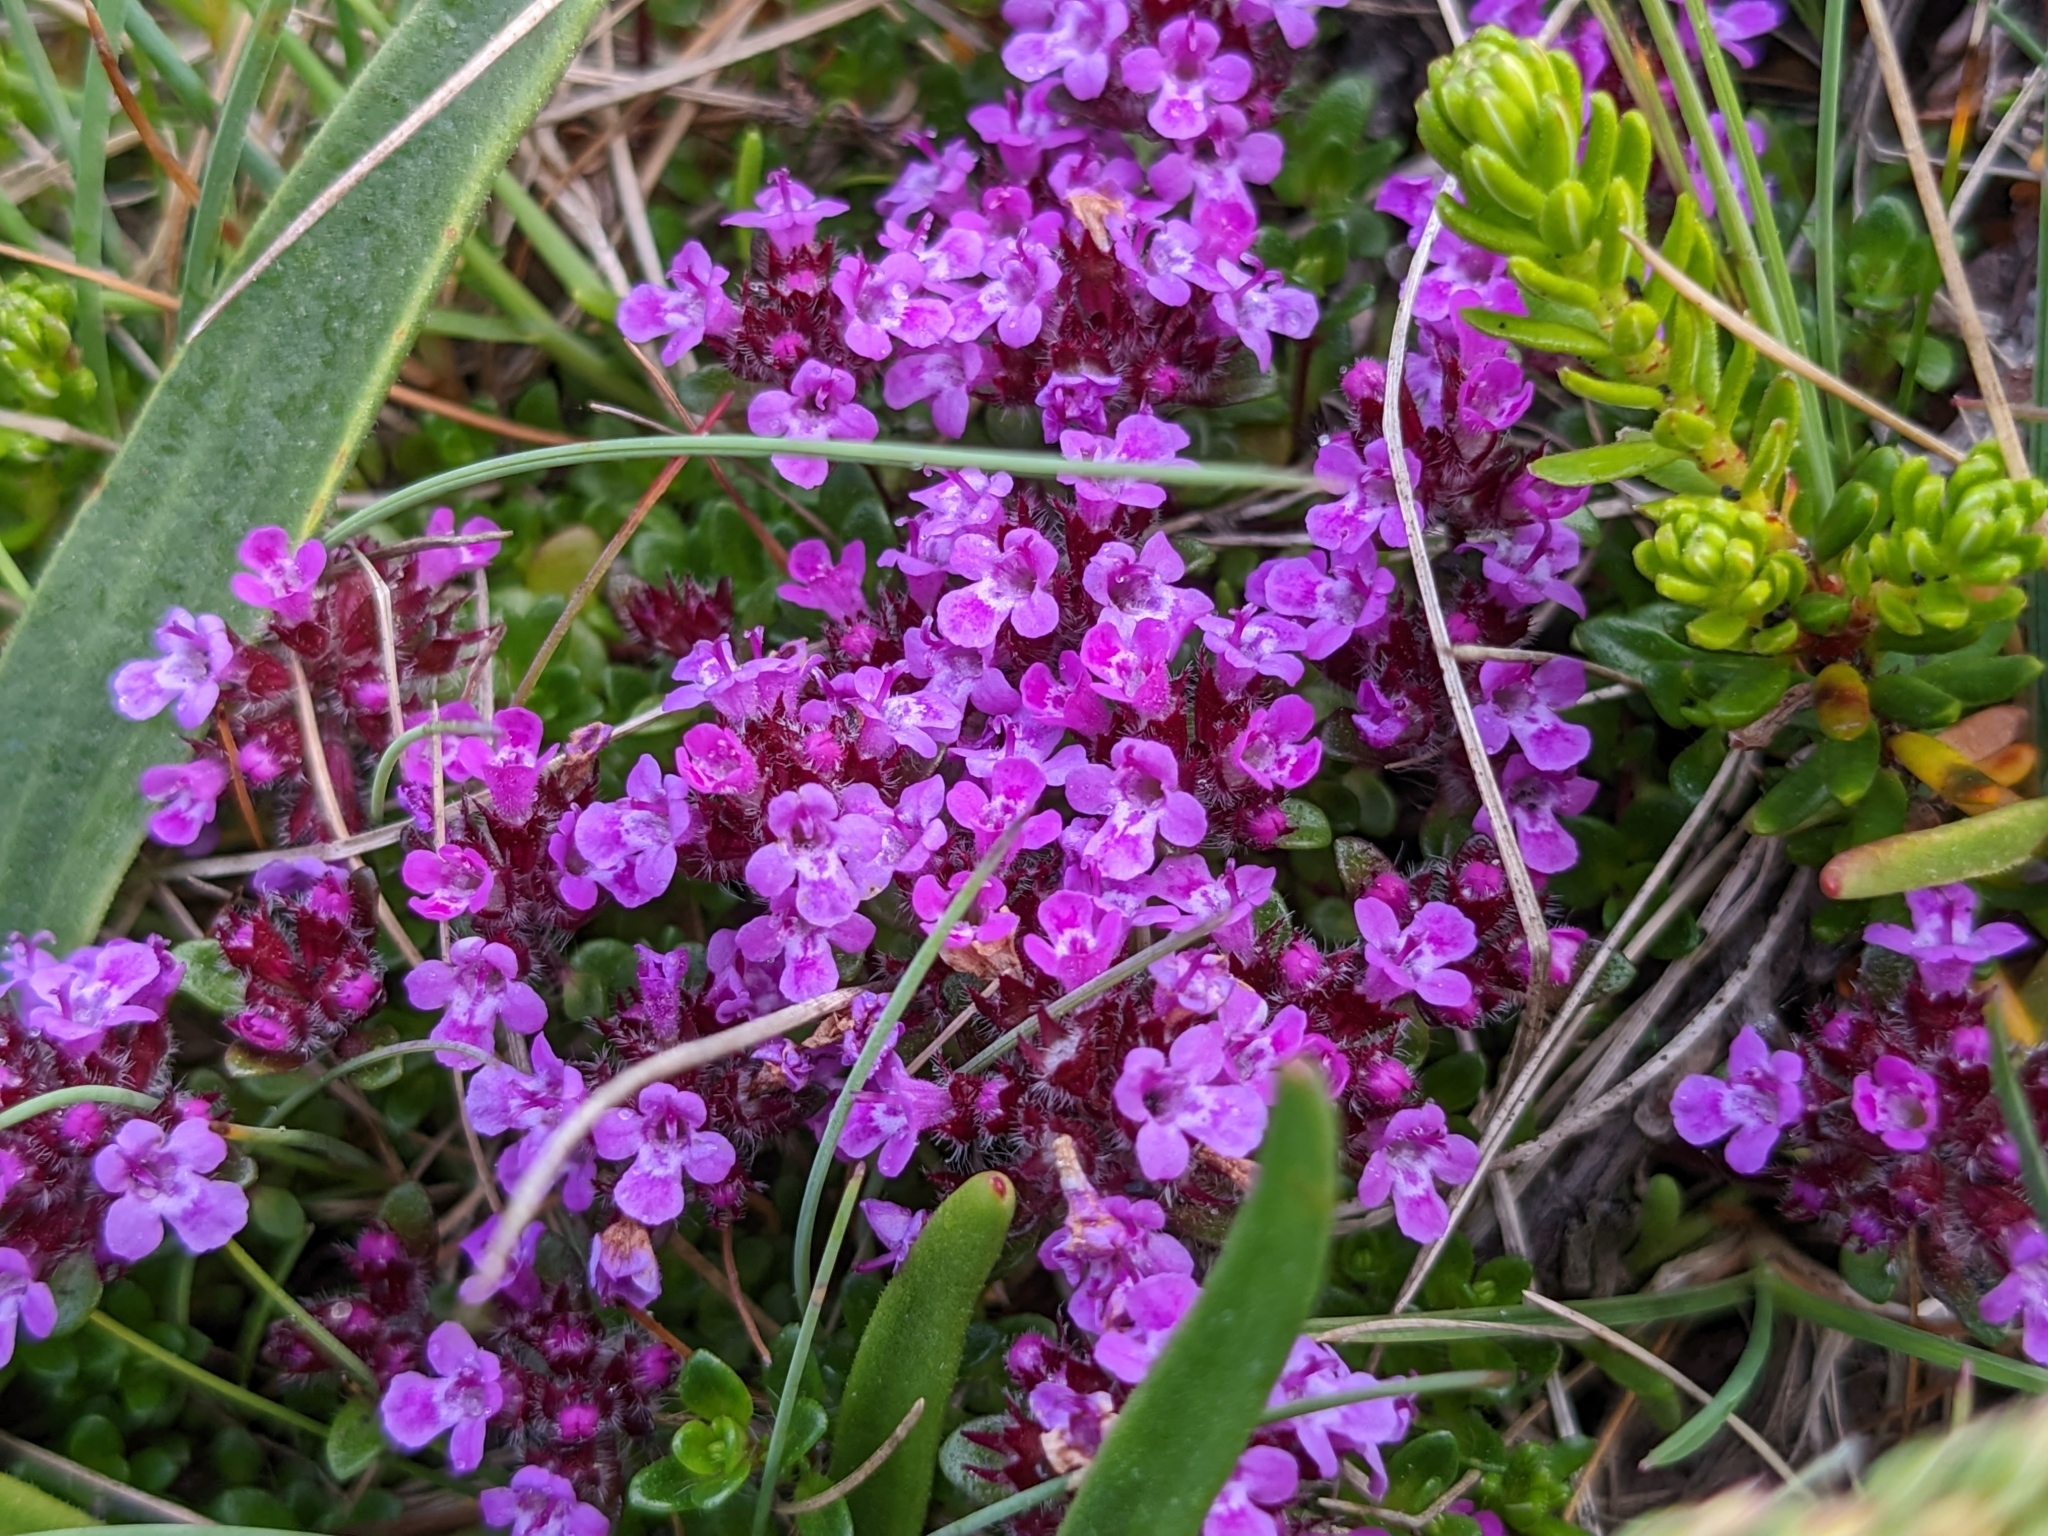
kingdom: Plantae
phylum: Tracheophyta
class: Magnoliopsida
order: Lamiales
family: Lamiaceae
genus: Thymus
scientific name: Thymus praecox
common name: Wild thyme
